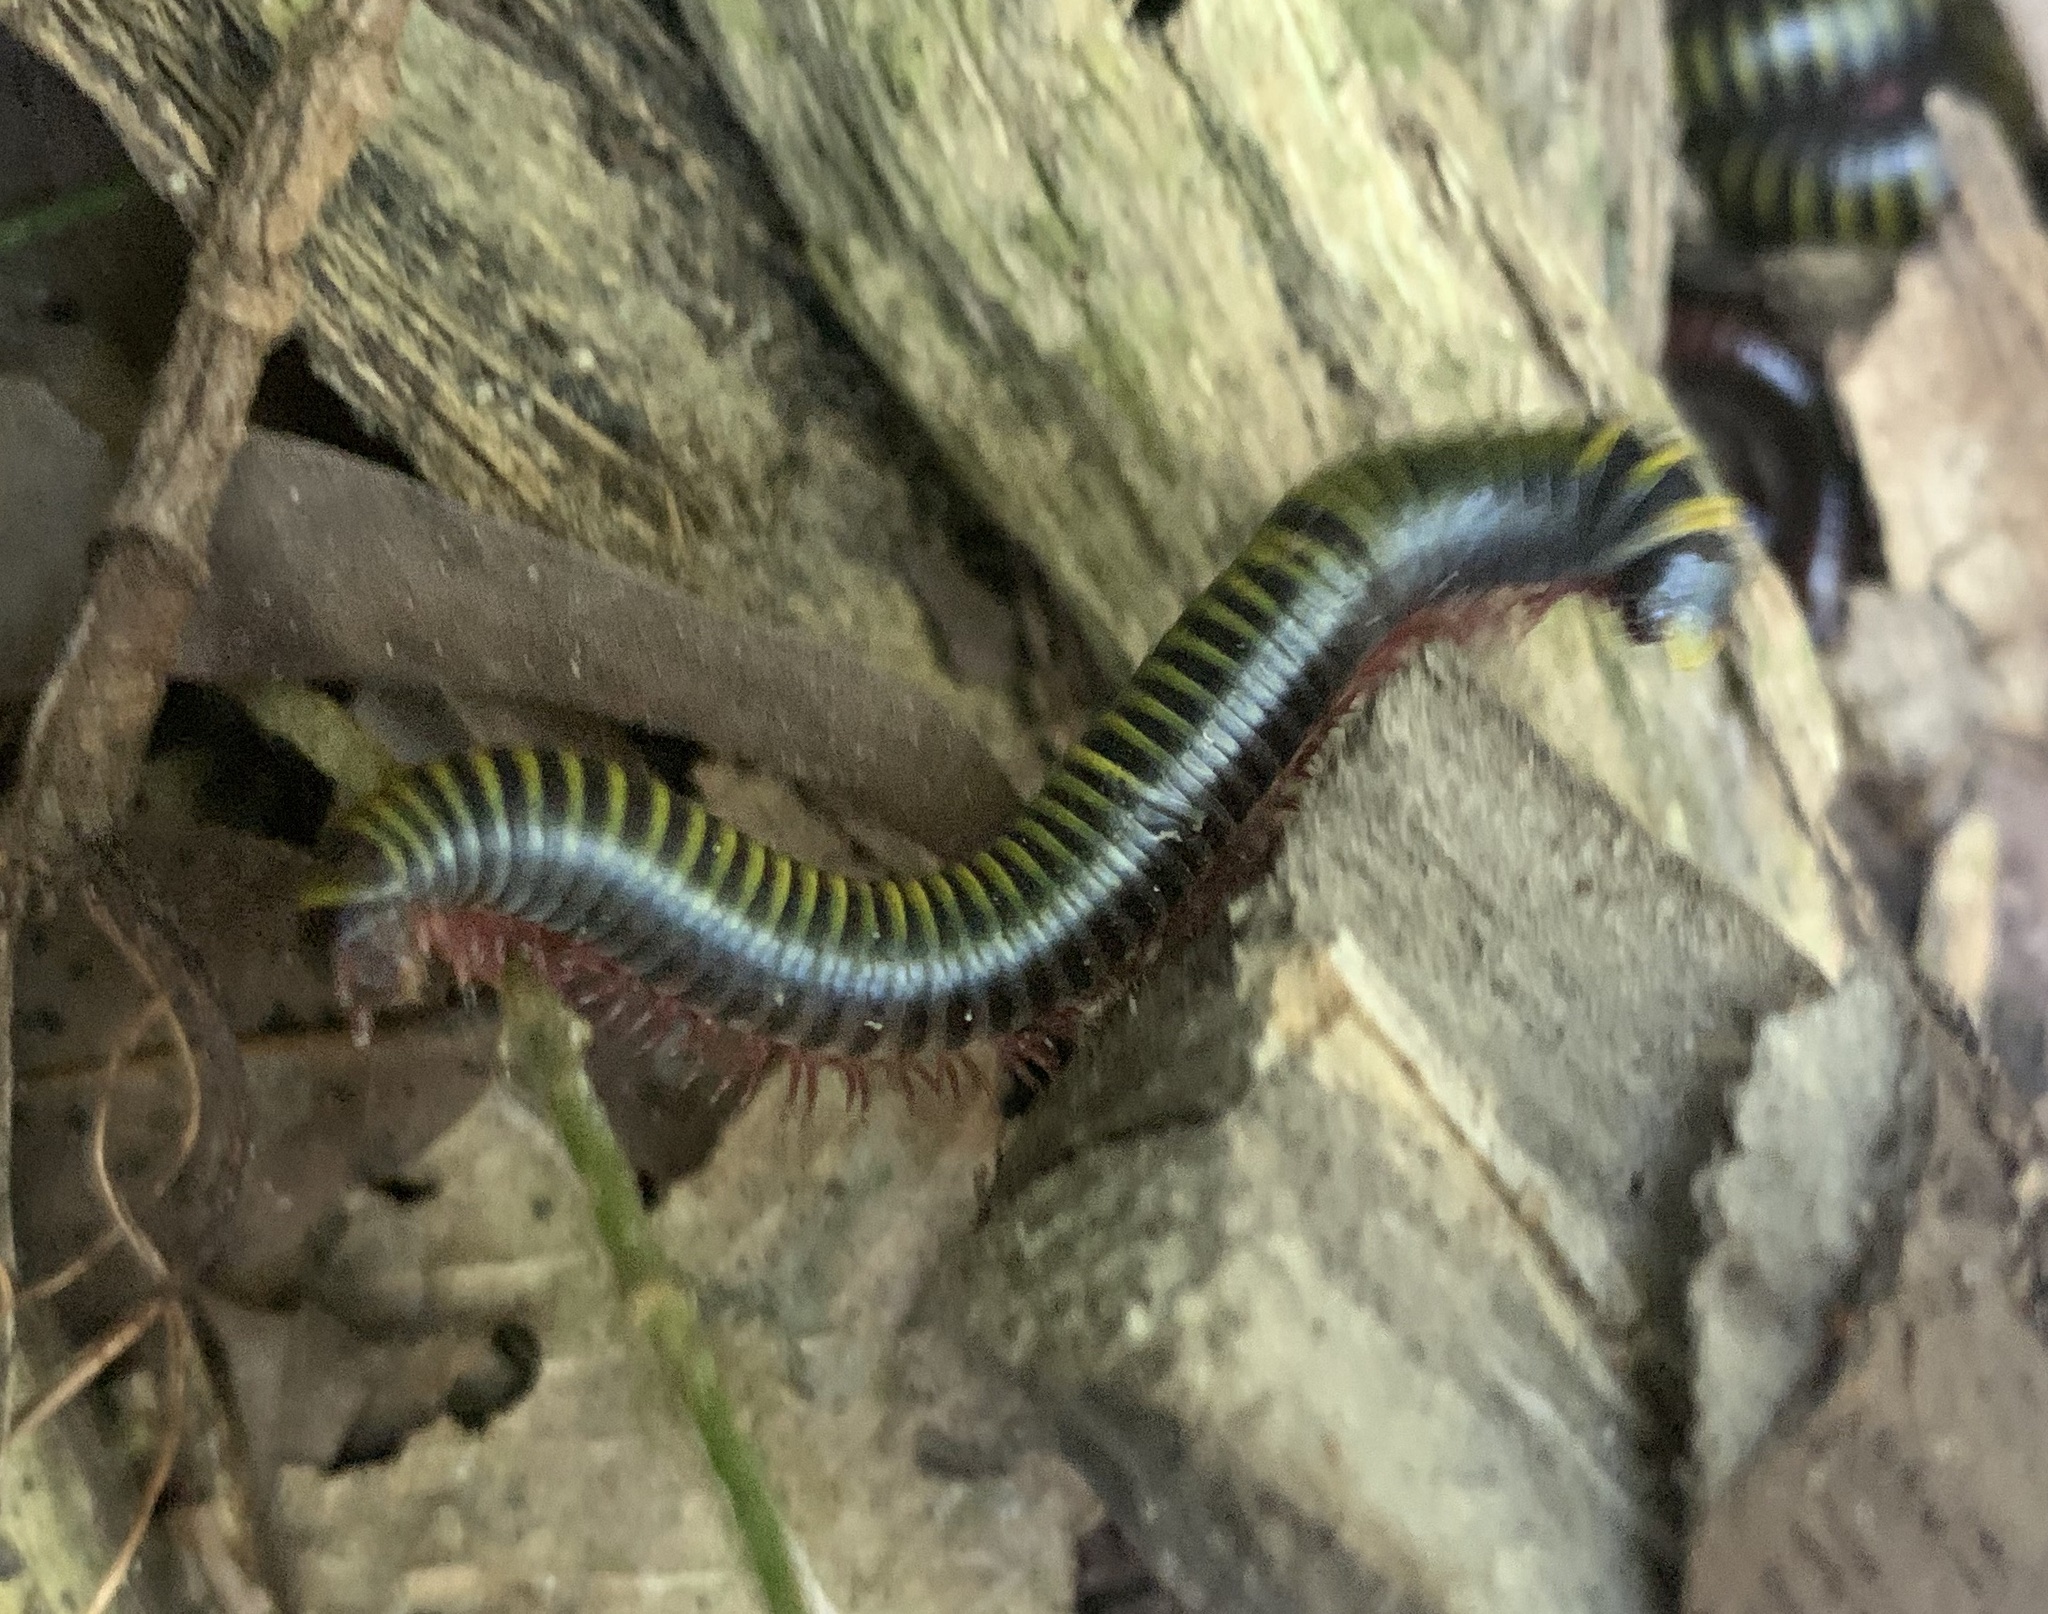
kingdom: Animalia
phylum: Arthropoda
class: Diplopoda
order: Spirobolida
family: Rhinocricidae
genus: Anadenobolus
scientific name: Anadenobolus monilicornis
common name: Caribbean millipede
